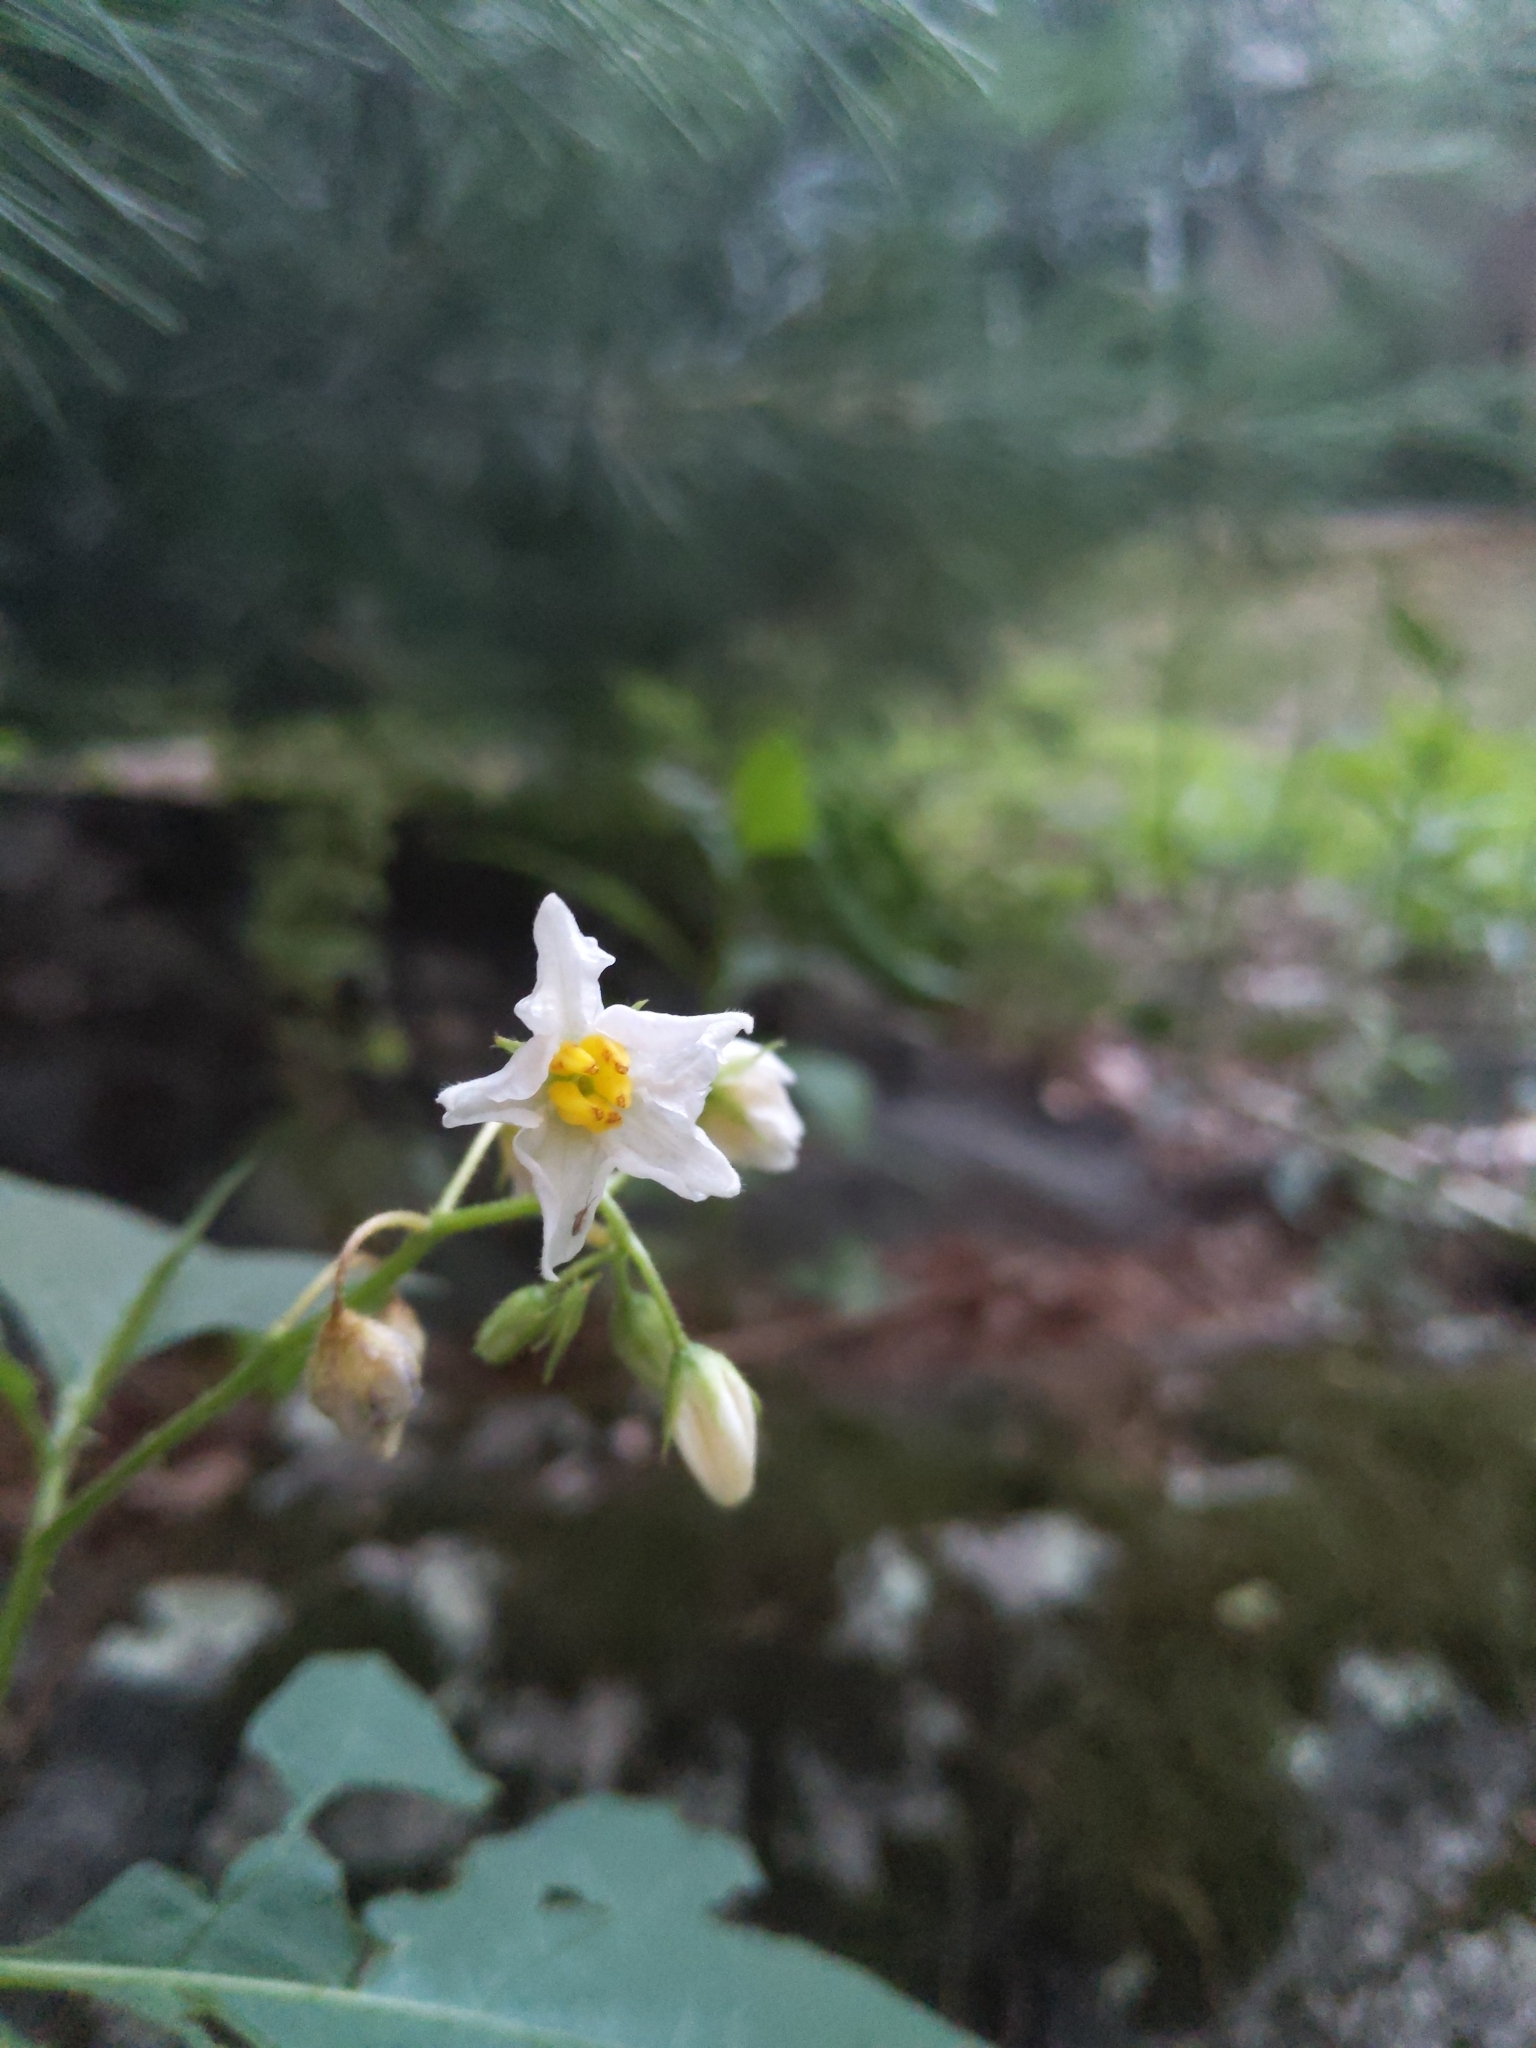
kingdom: Plantae
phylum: Tracheophyta
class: Magnoliopsida
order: Solanales
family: Solanaceae
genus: Solanum
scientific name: Solanum carolinense
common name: Horse-nettle
